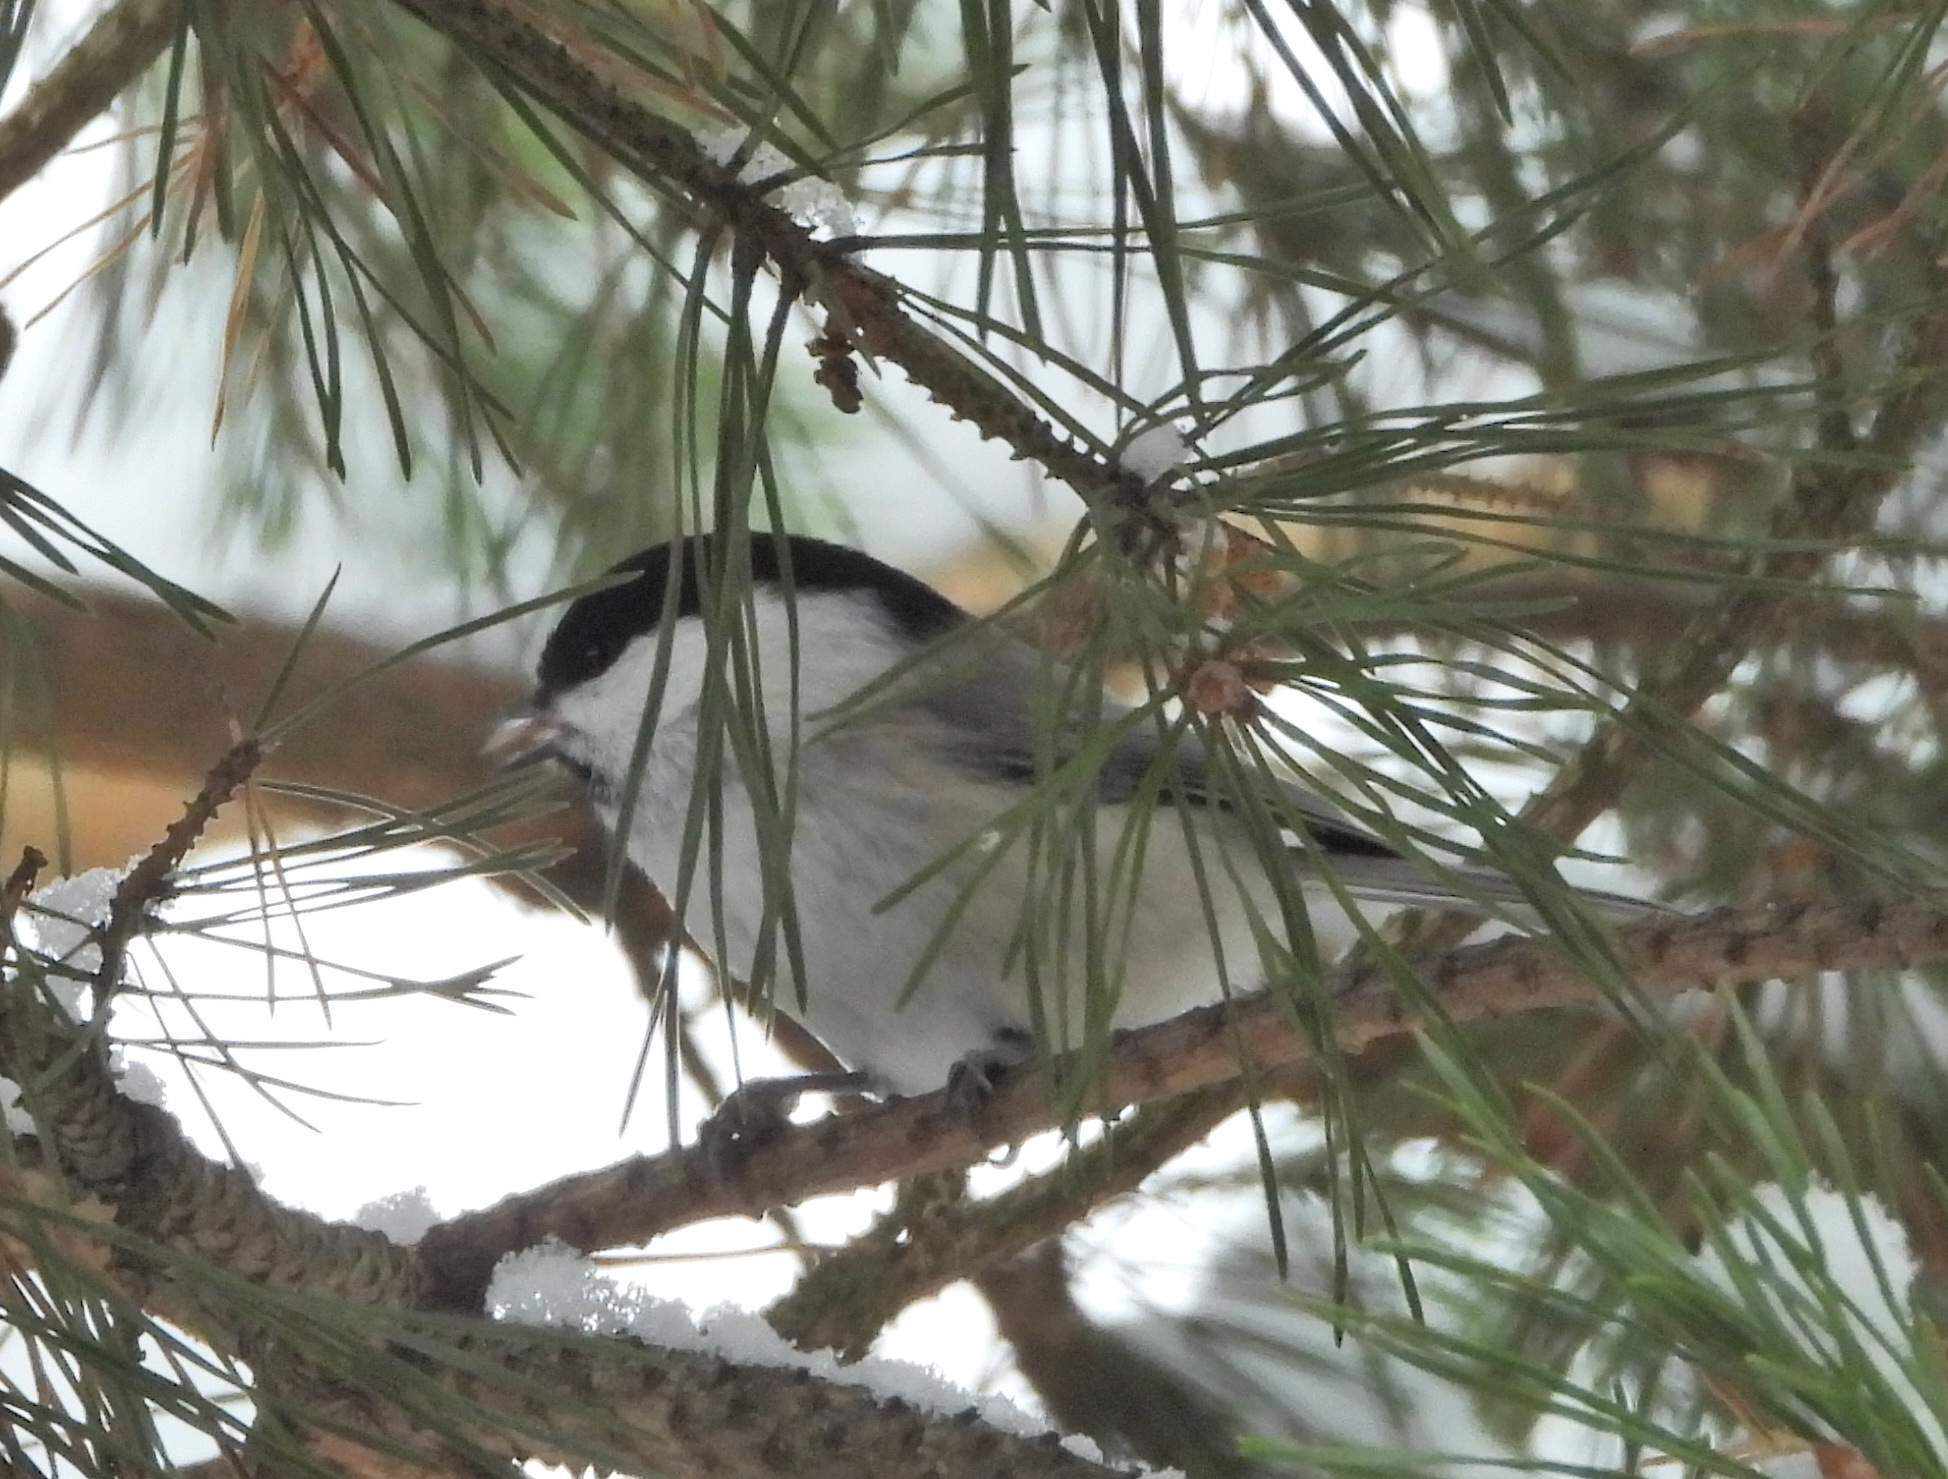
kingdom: Animalia
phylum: Chordata
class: Aves
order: Passeriformes
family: Paridae
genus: Poecile
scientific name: Poecile montanus
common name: Willow tit
